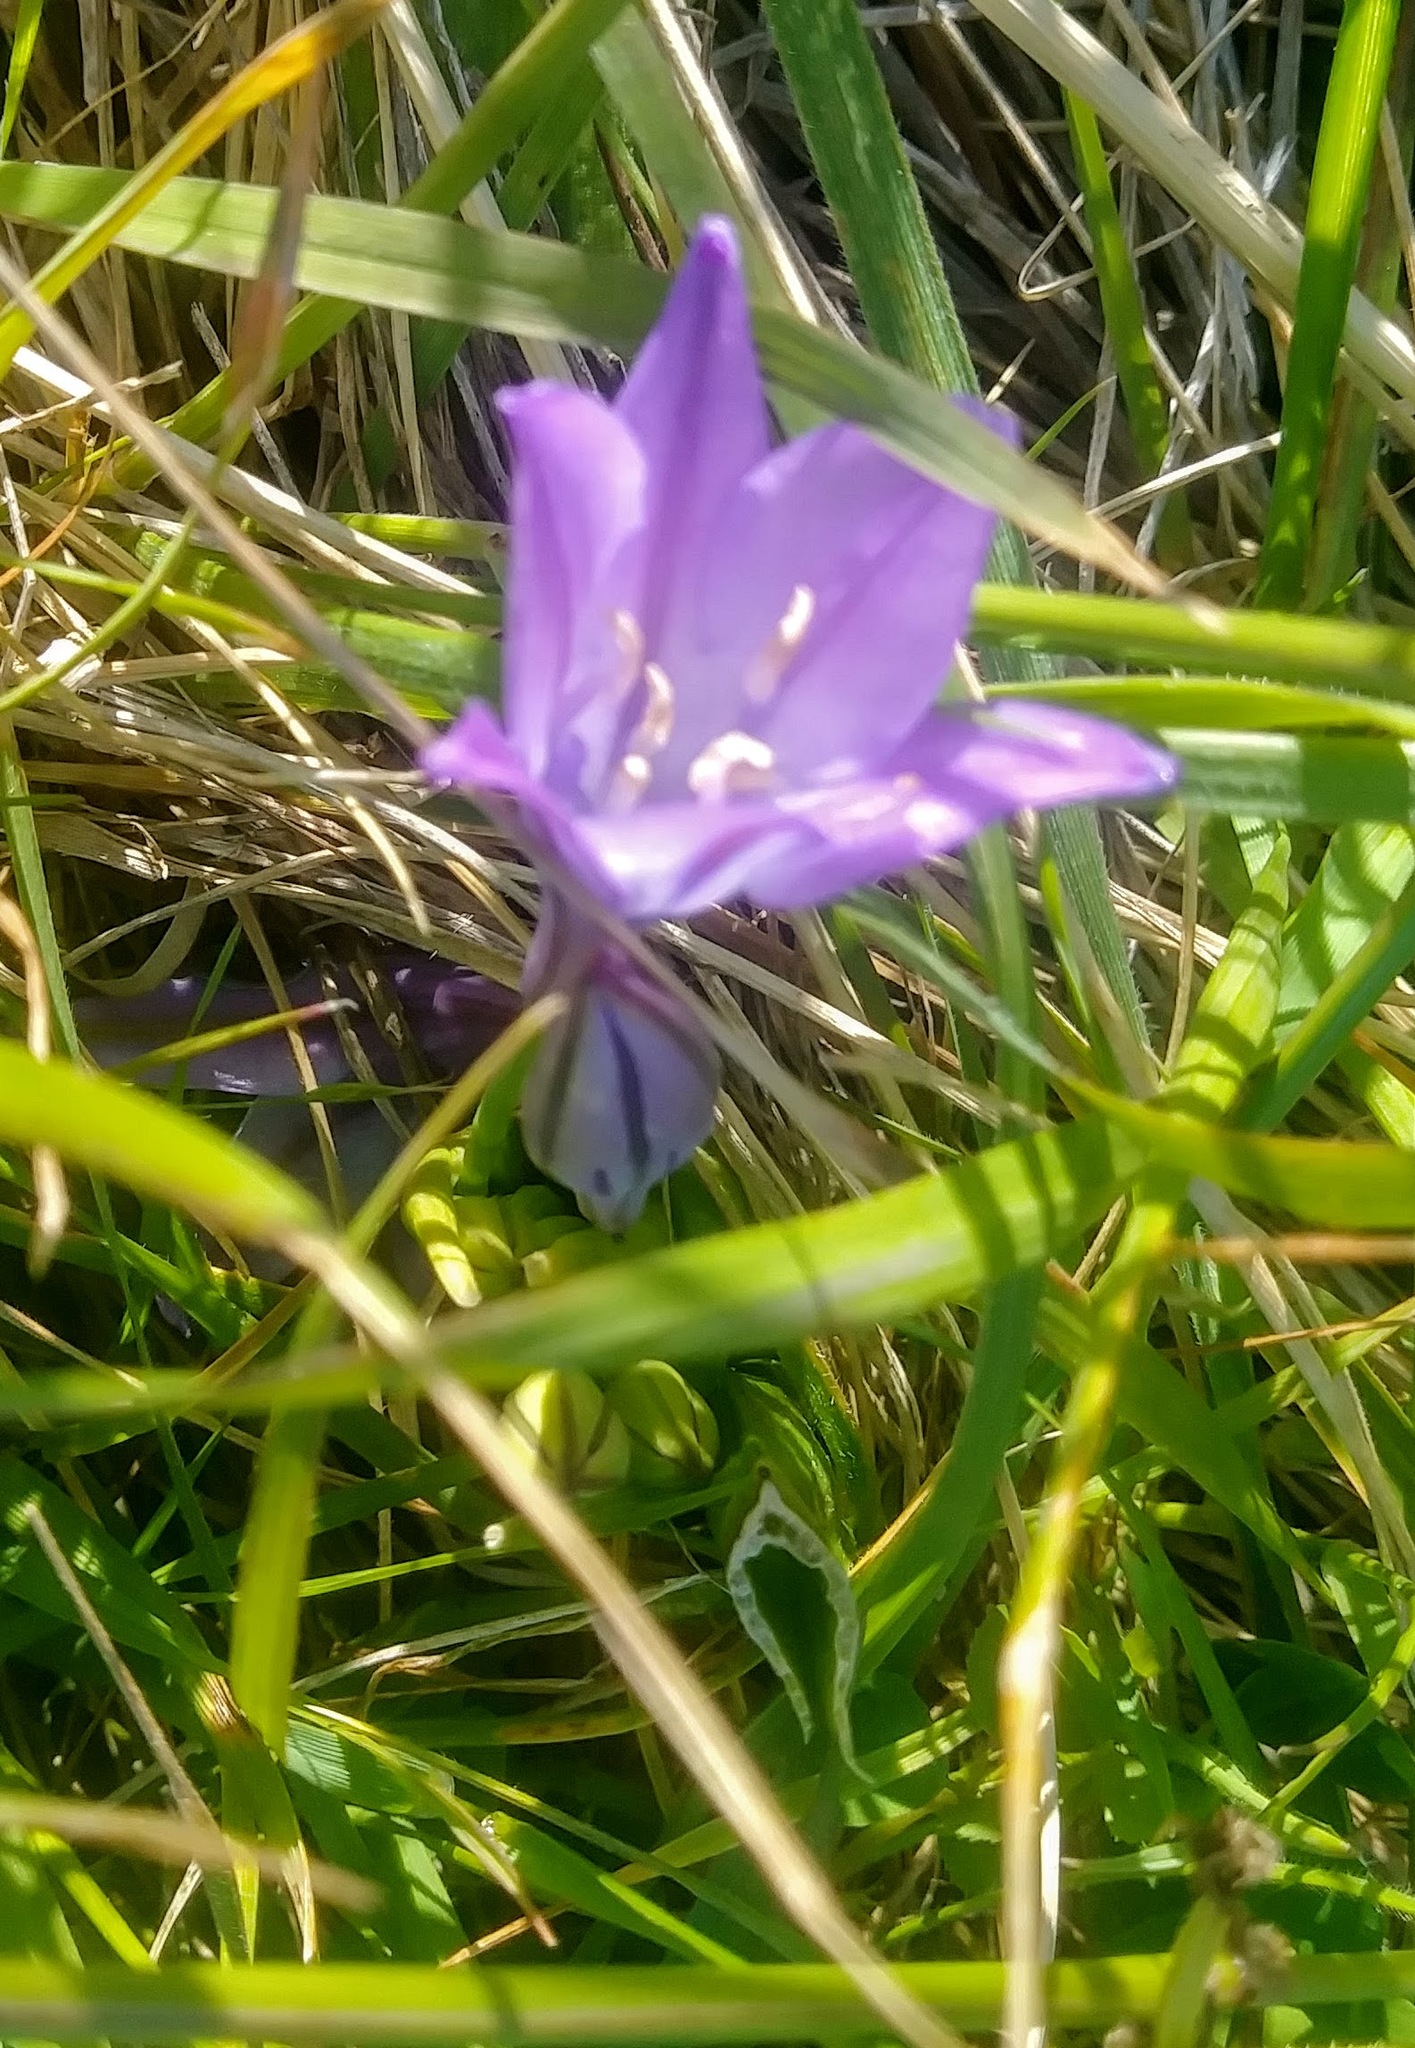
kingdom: Plantae
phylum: Tracheophyta
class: Liliopsida
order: Asparagales
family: Asparagaceae
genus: Triteleia
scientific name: Triteleia laxa
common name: Triplet-lily
